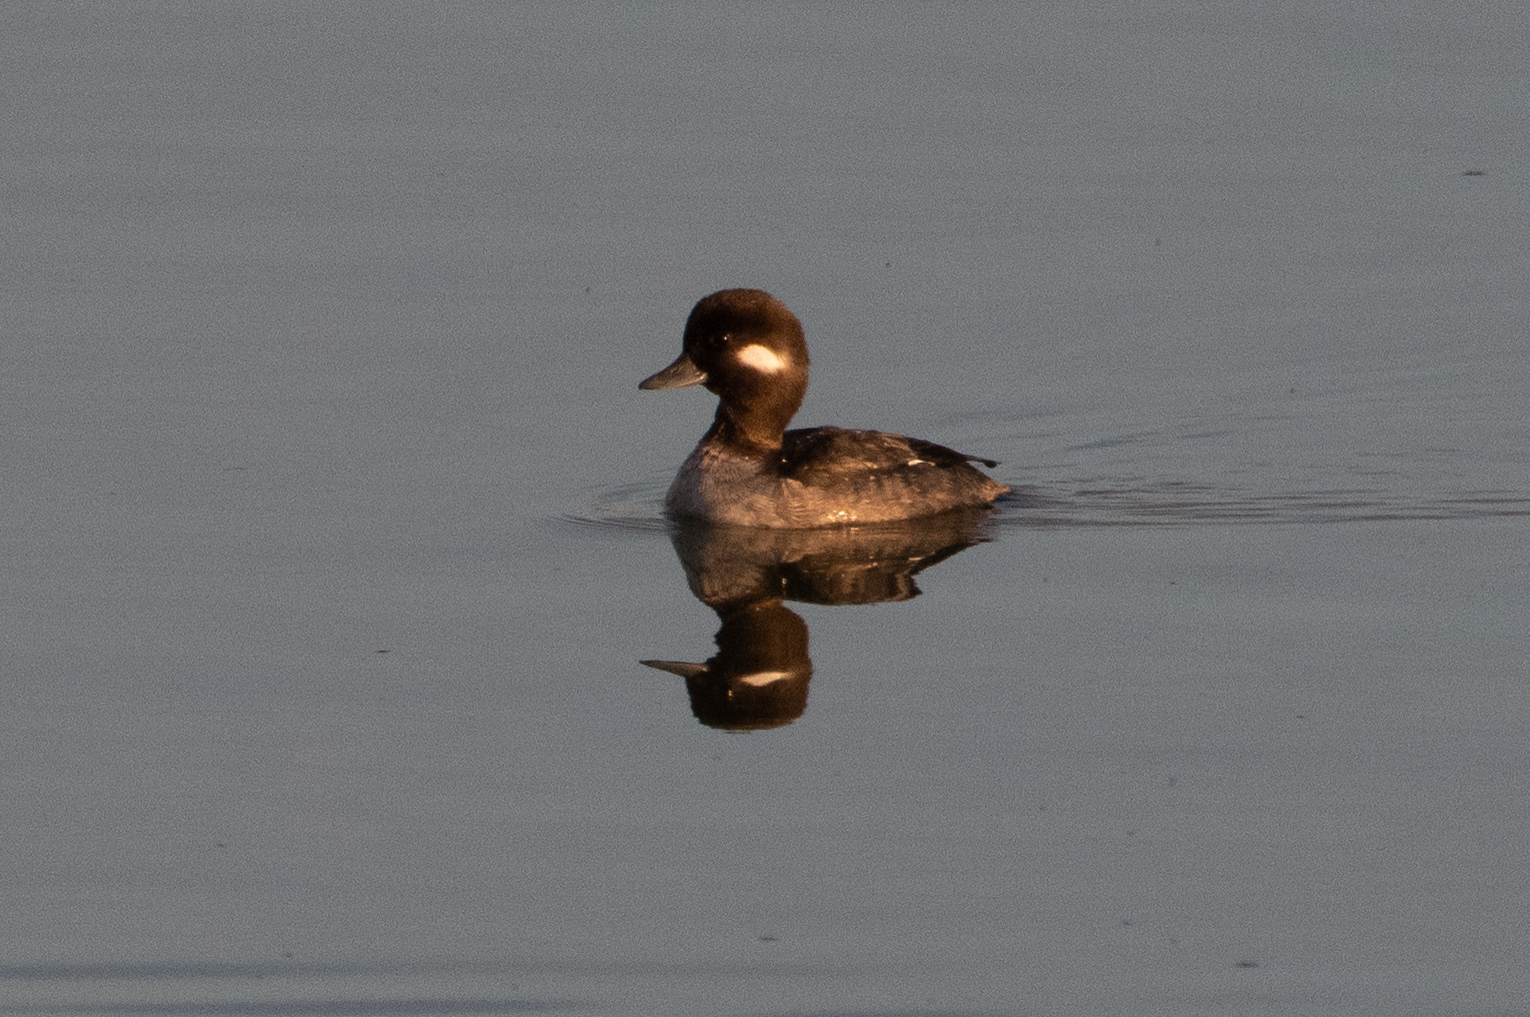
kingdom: Animalia
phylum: Chordata
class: Aves
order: Anseriformes
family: Anatidae
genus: Bucephala
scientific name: Bucephala albeola
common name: Bufflehead
